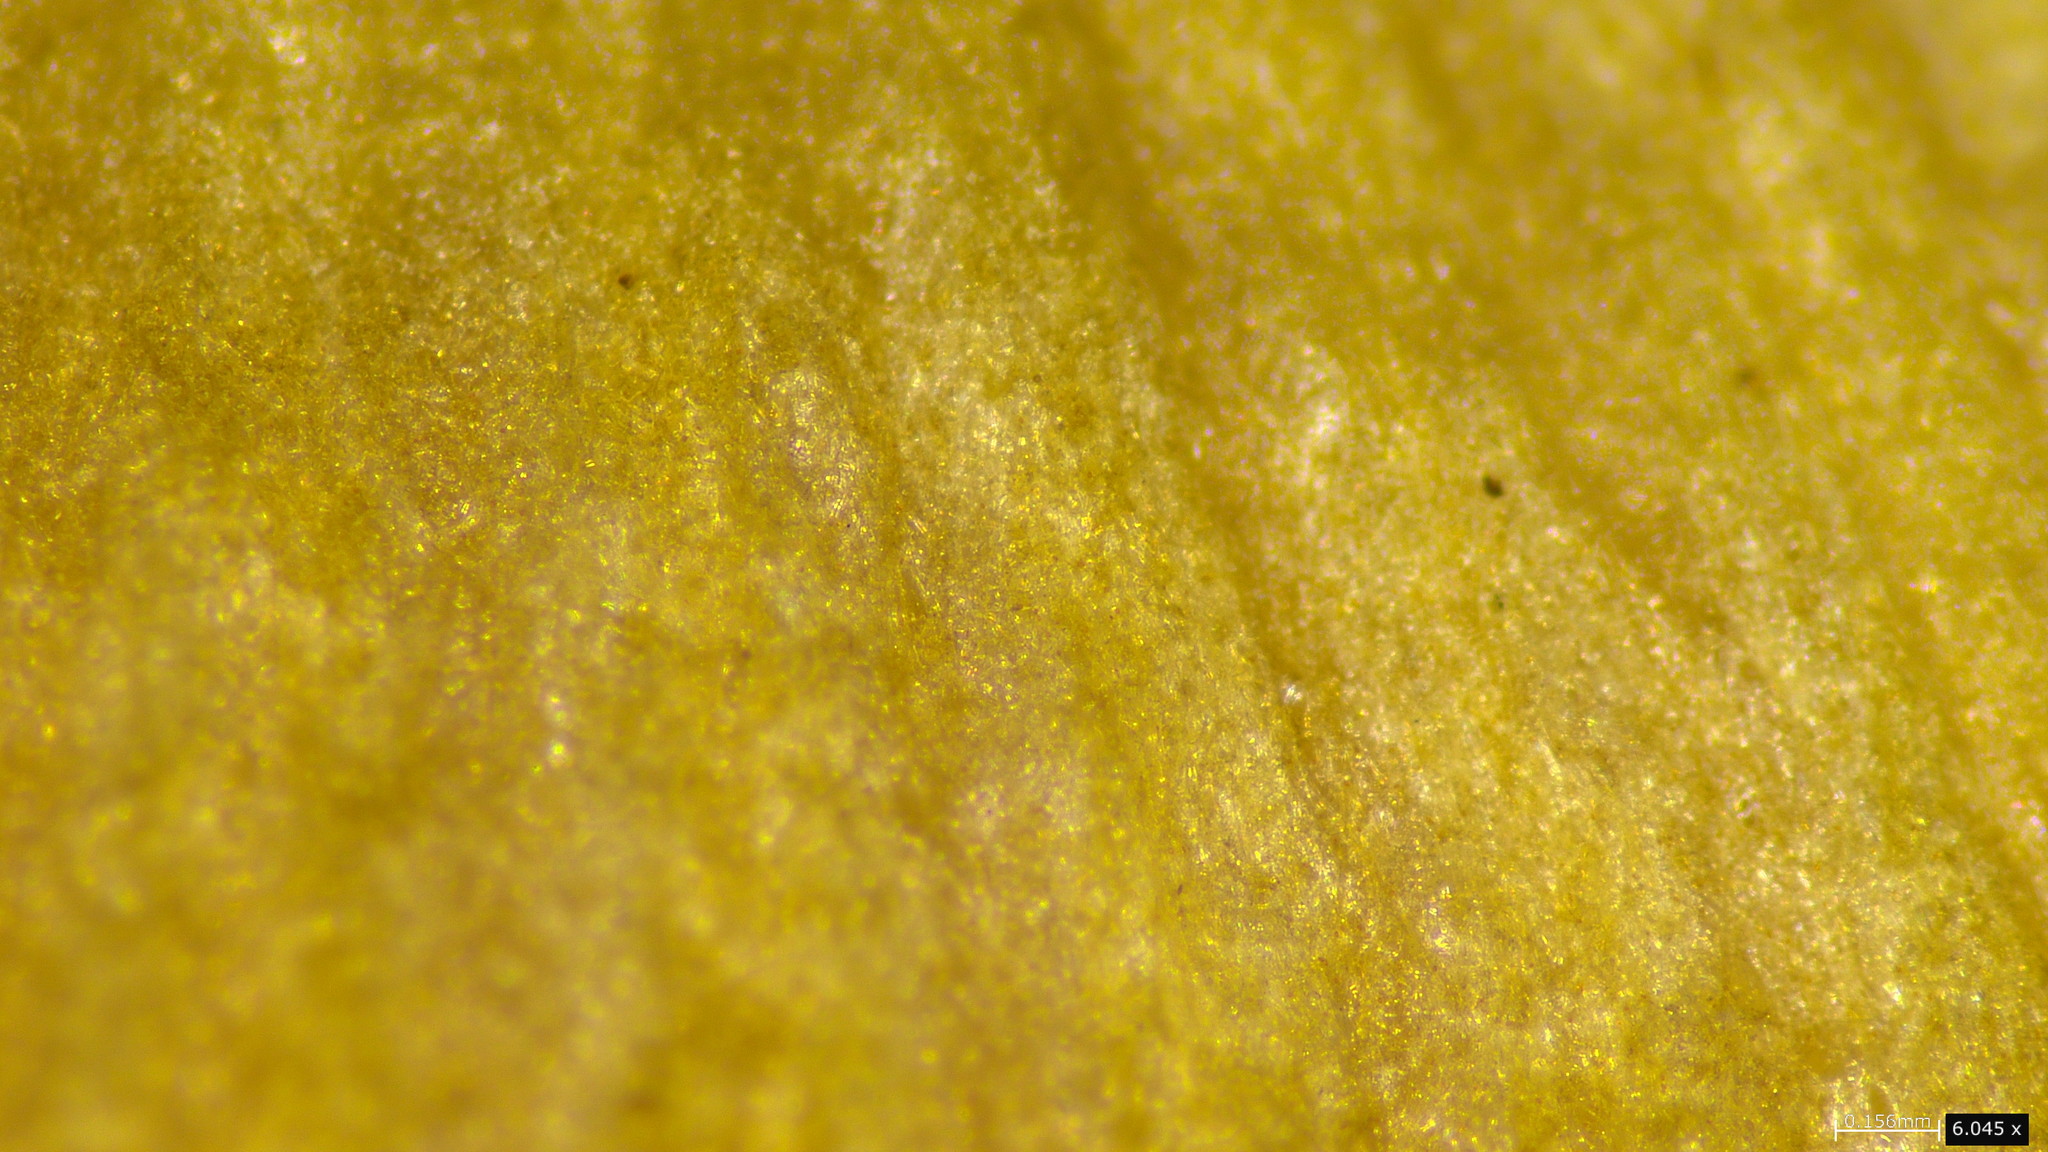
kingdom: Fungi
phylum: Basidiomycota
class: Agaricomycetes
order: Agaricales
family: Bolbitiaceae
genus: Bolbitius
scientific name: Bolbitius titubans
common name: Yellow fieldcap
